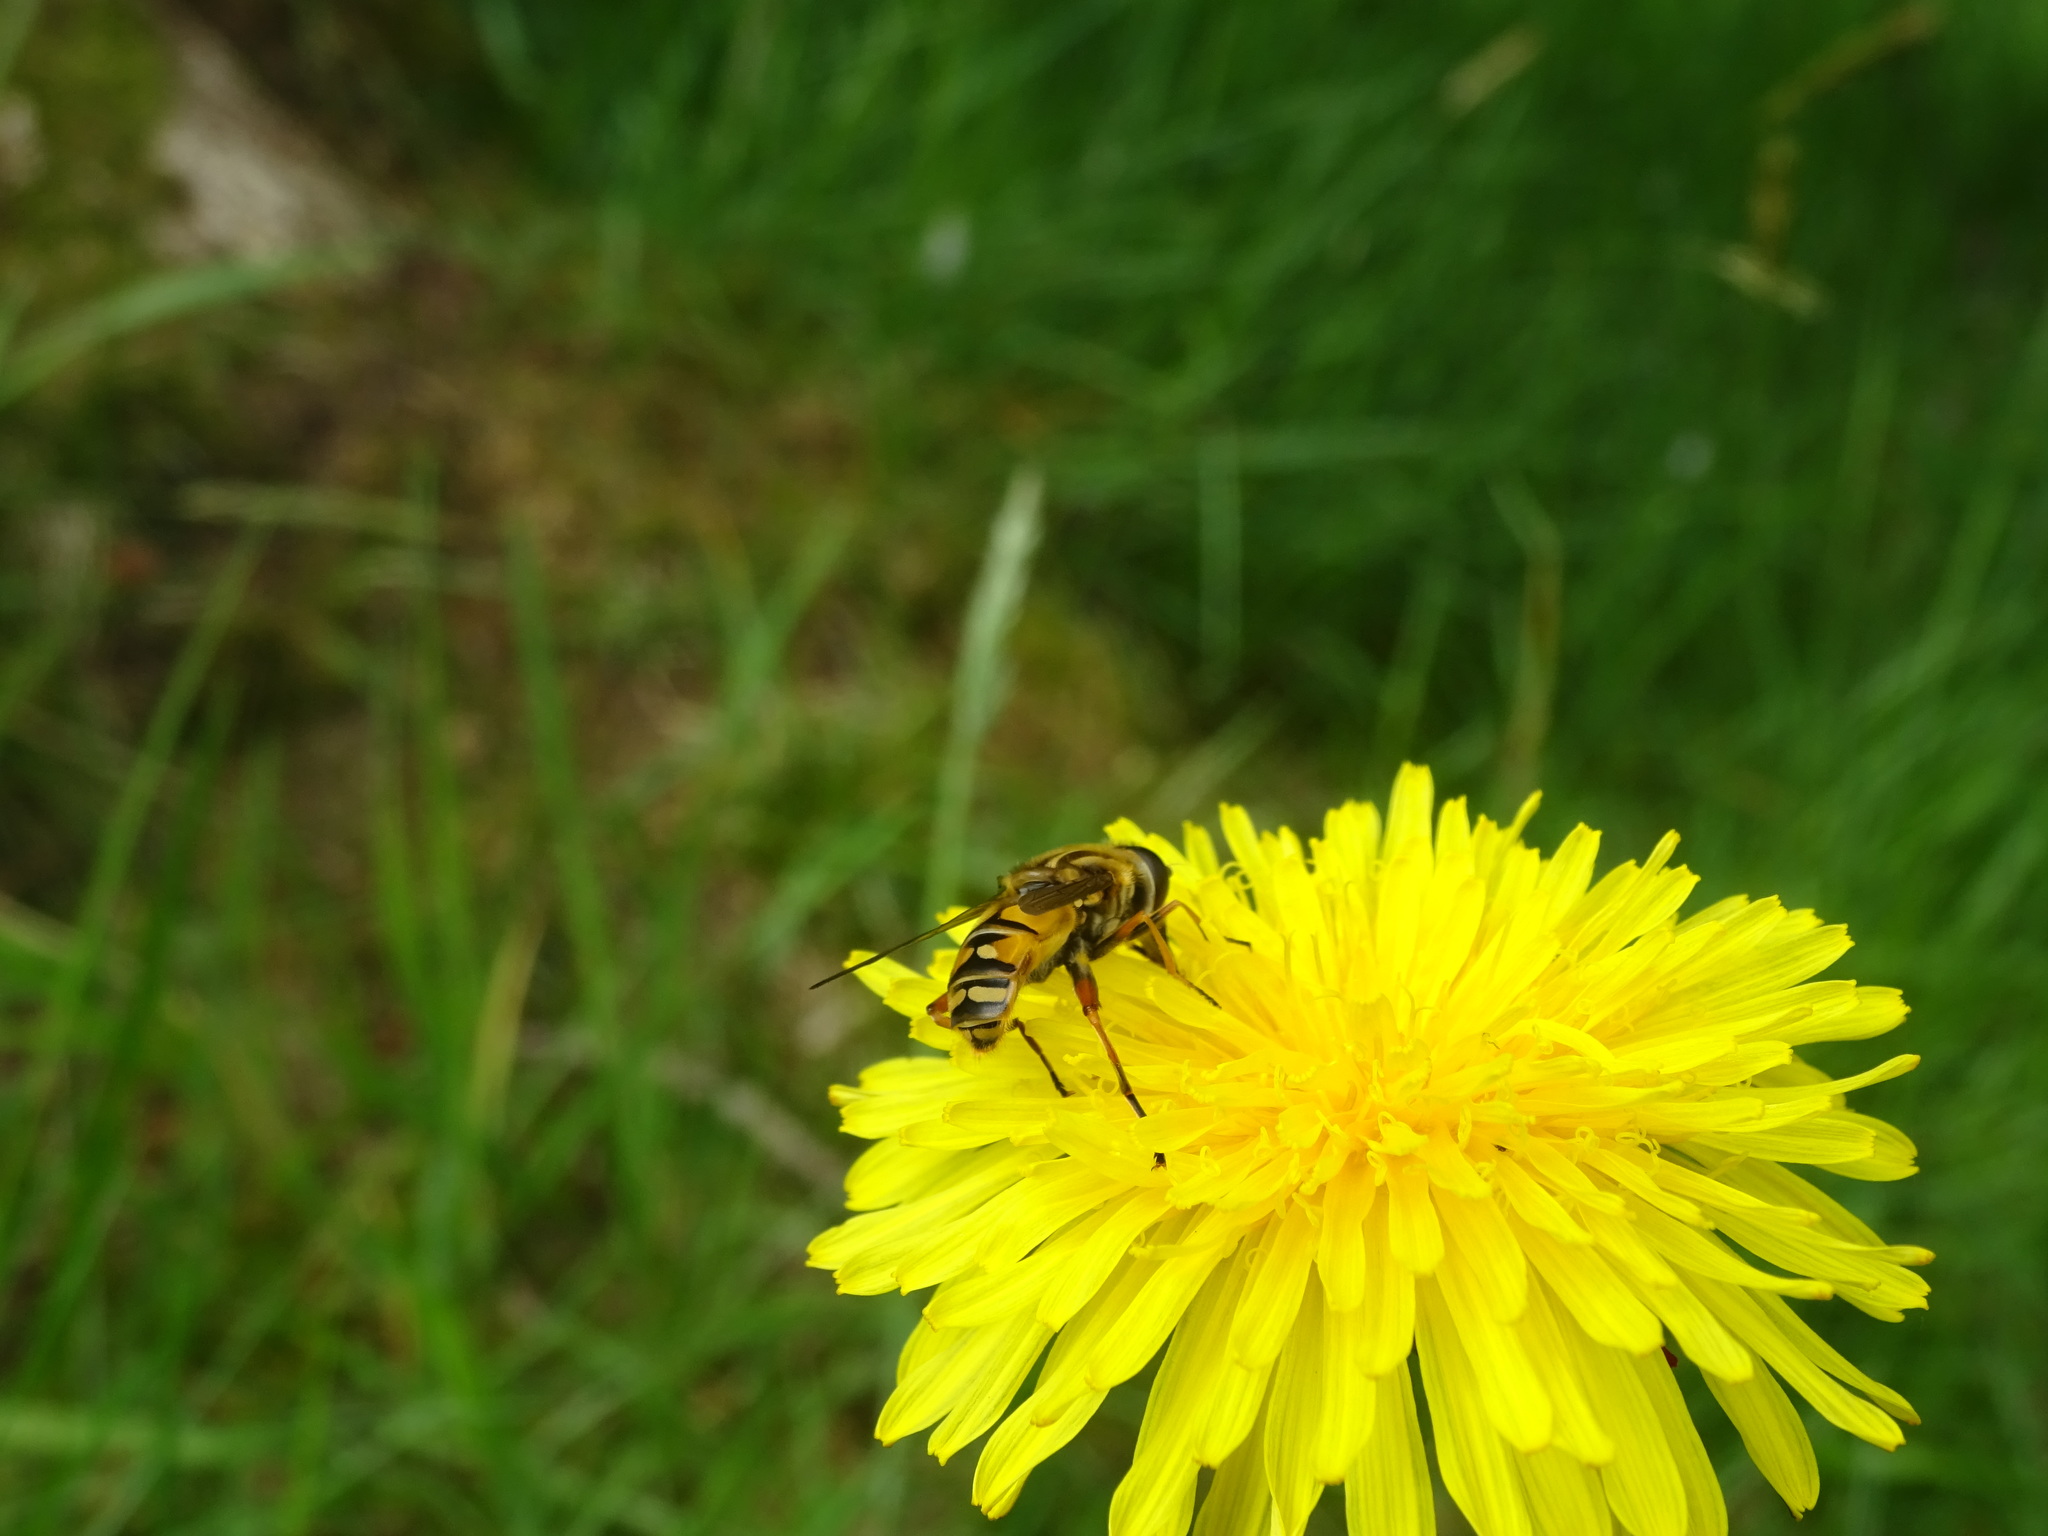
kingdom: Animalia
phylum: Arthropoda
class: Insecta
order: Diptera
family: Syrphidae
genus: Helophilus
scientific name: Helophilus pendulus
